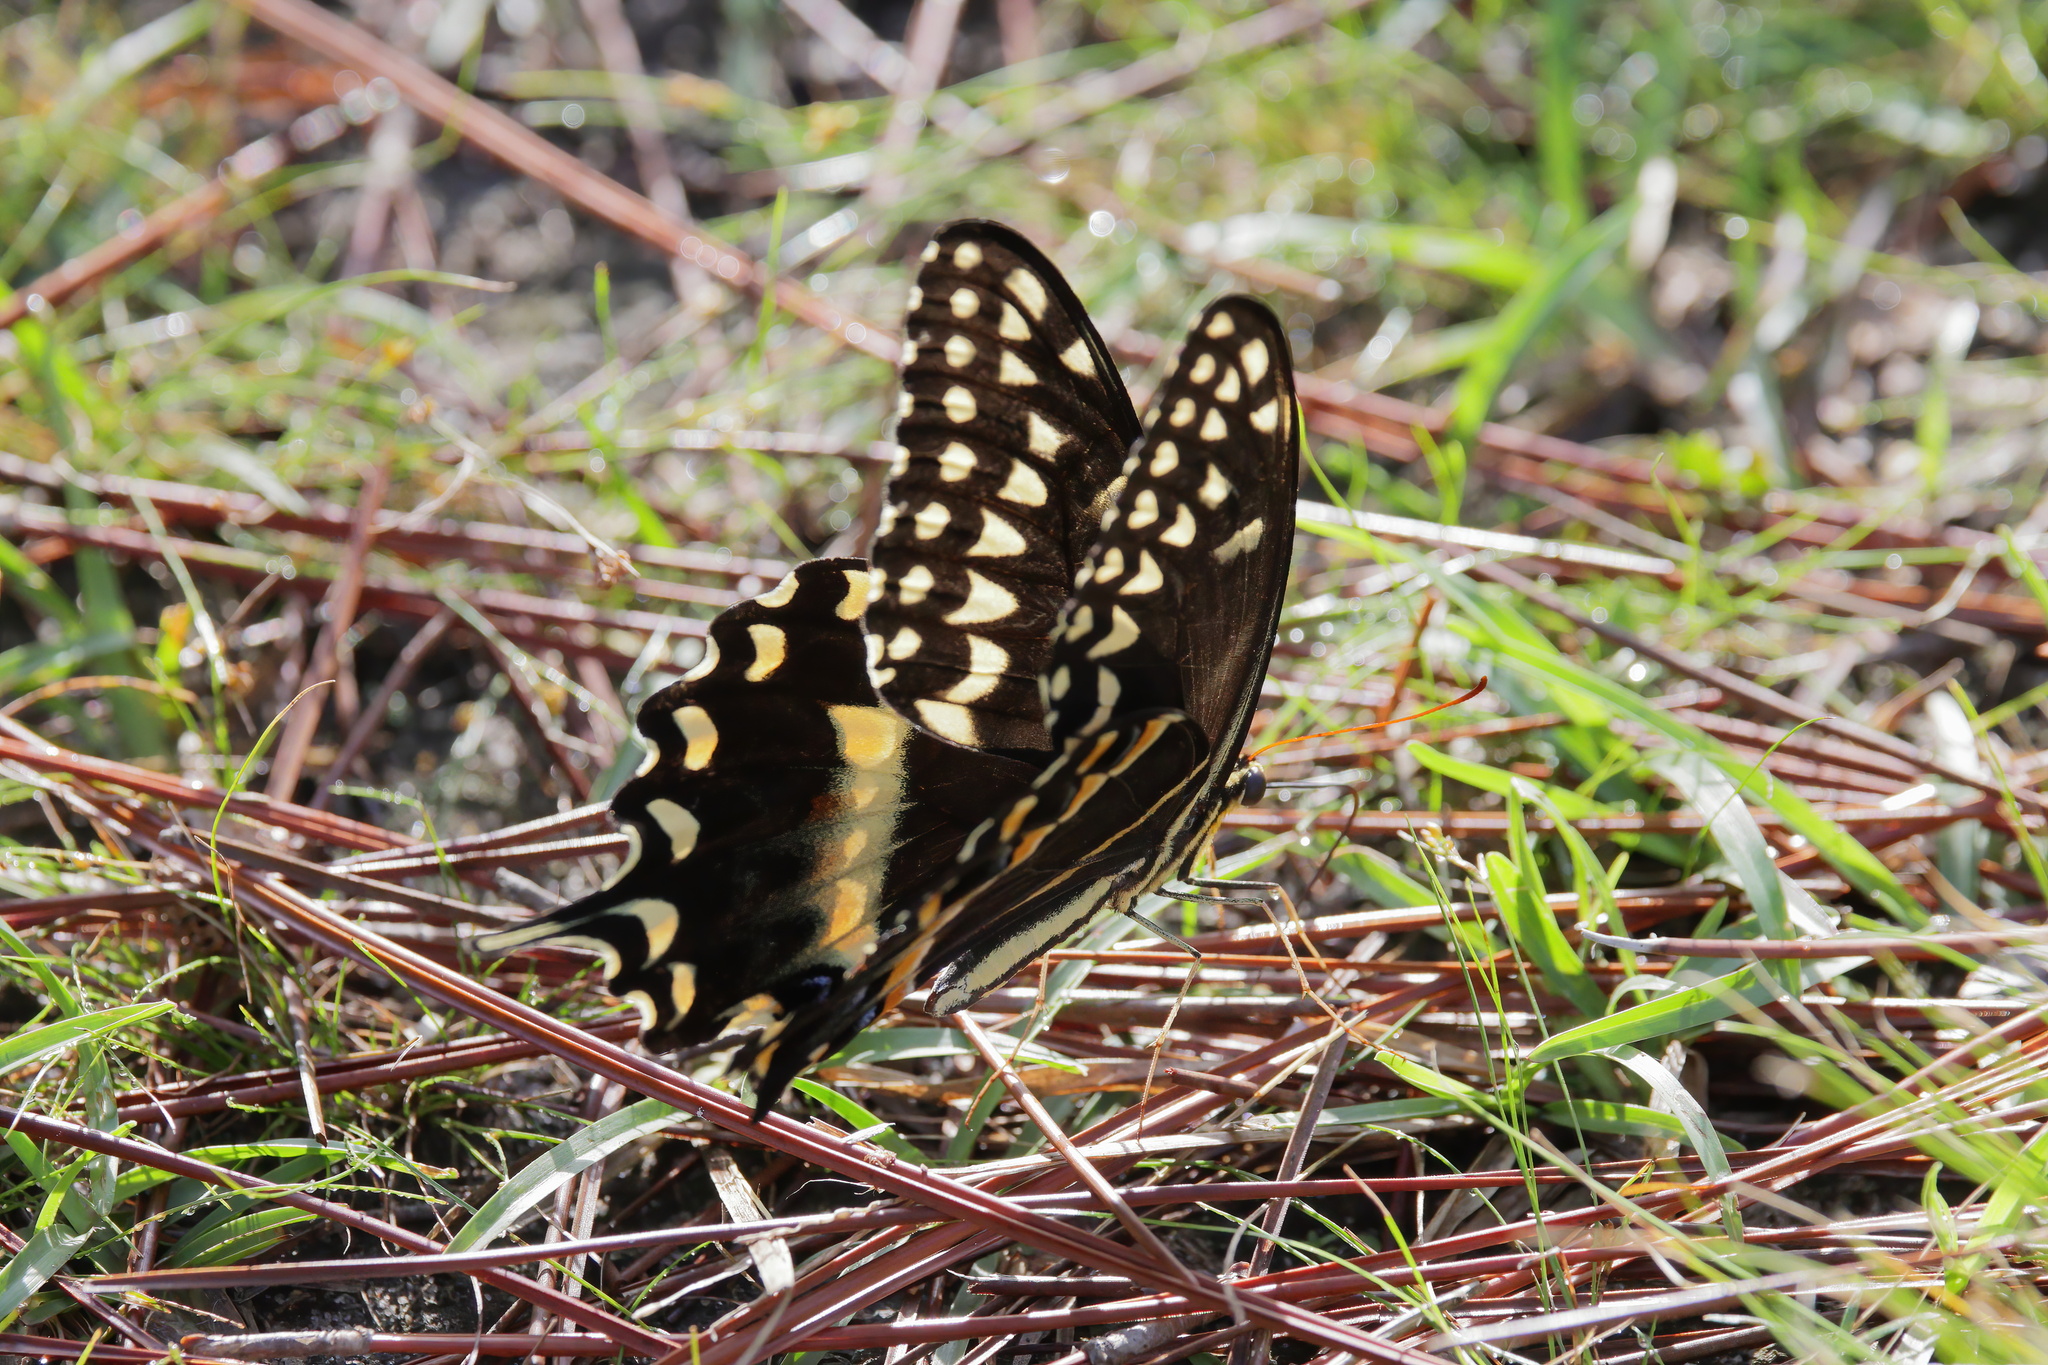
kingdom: Animalia
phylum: Arthropoda
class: Insecta
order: Lepidoptera
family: Papilionidae
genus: Papilio
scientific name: Papilio palamedes
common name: Palamedes swallowtail
